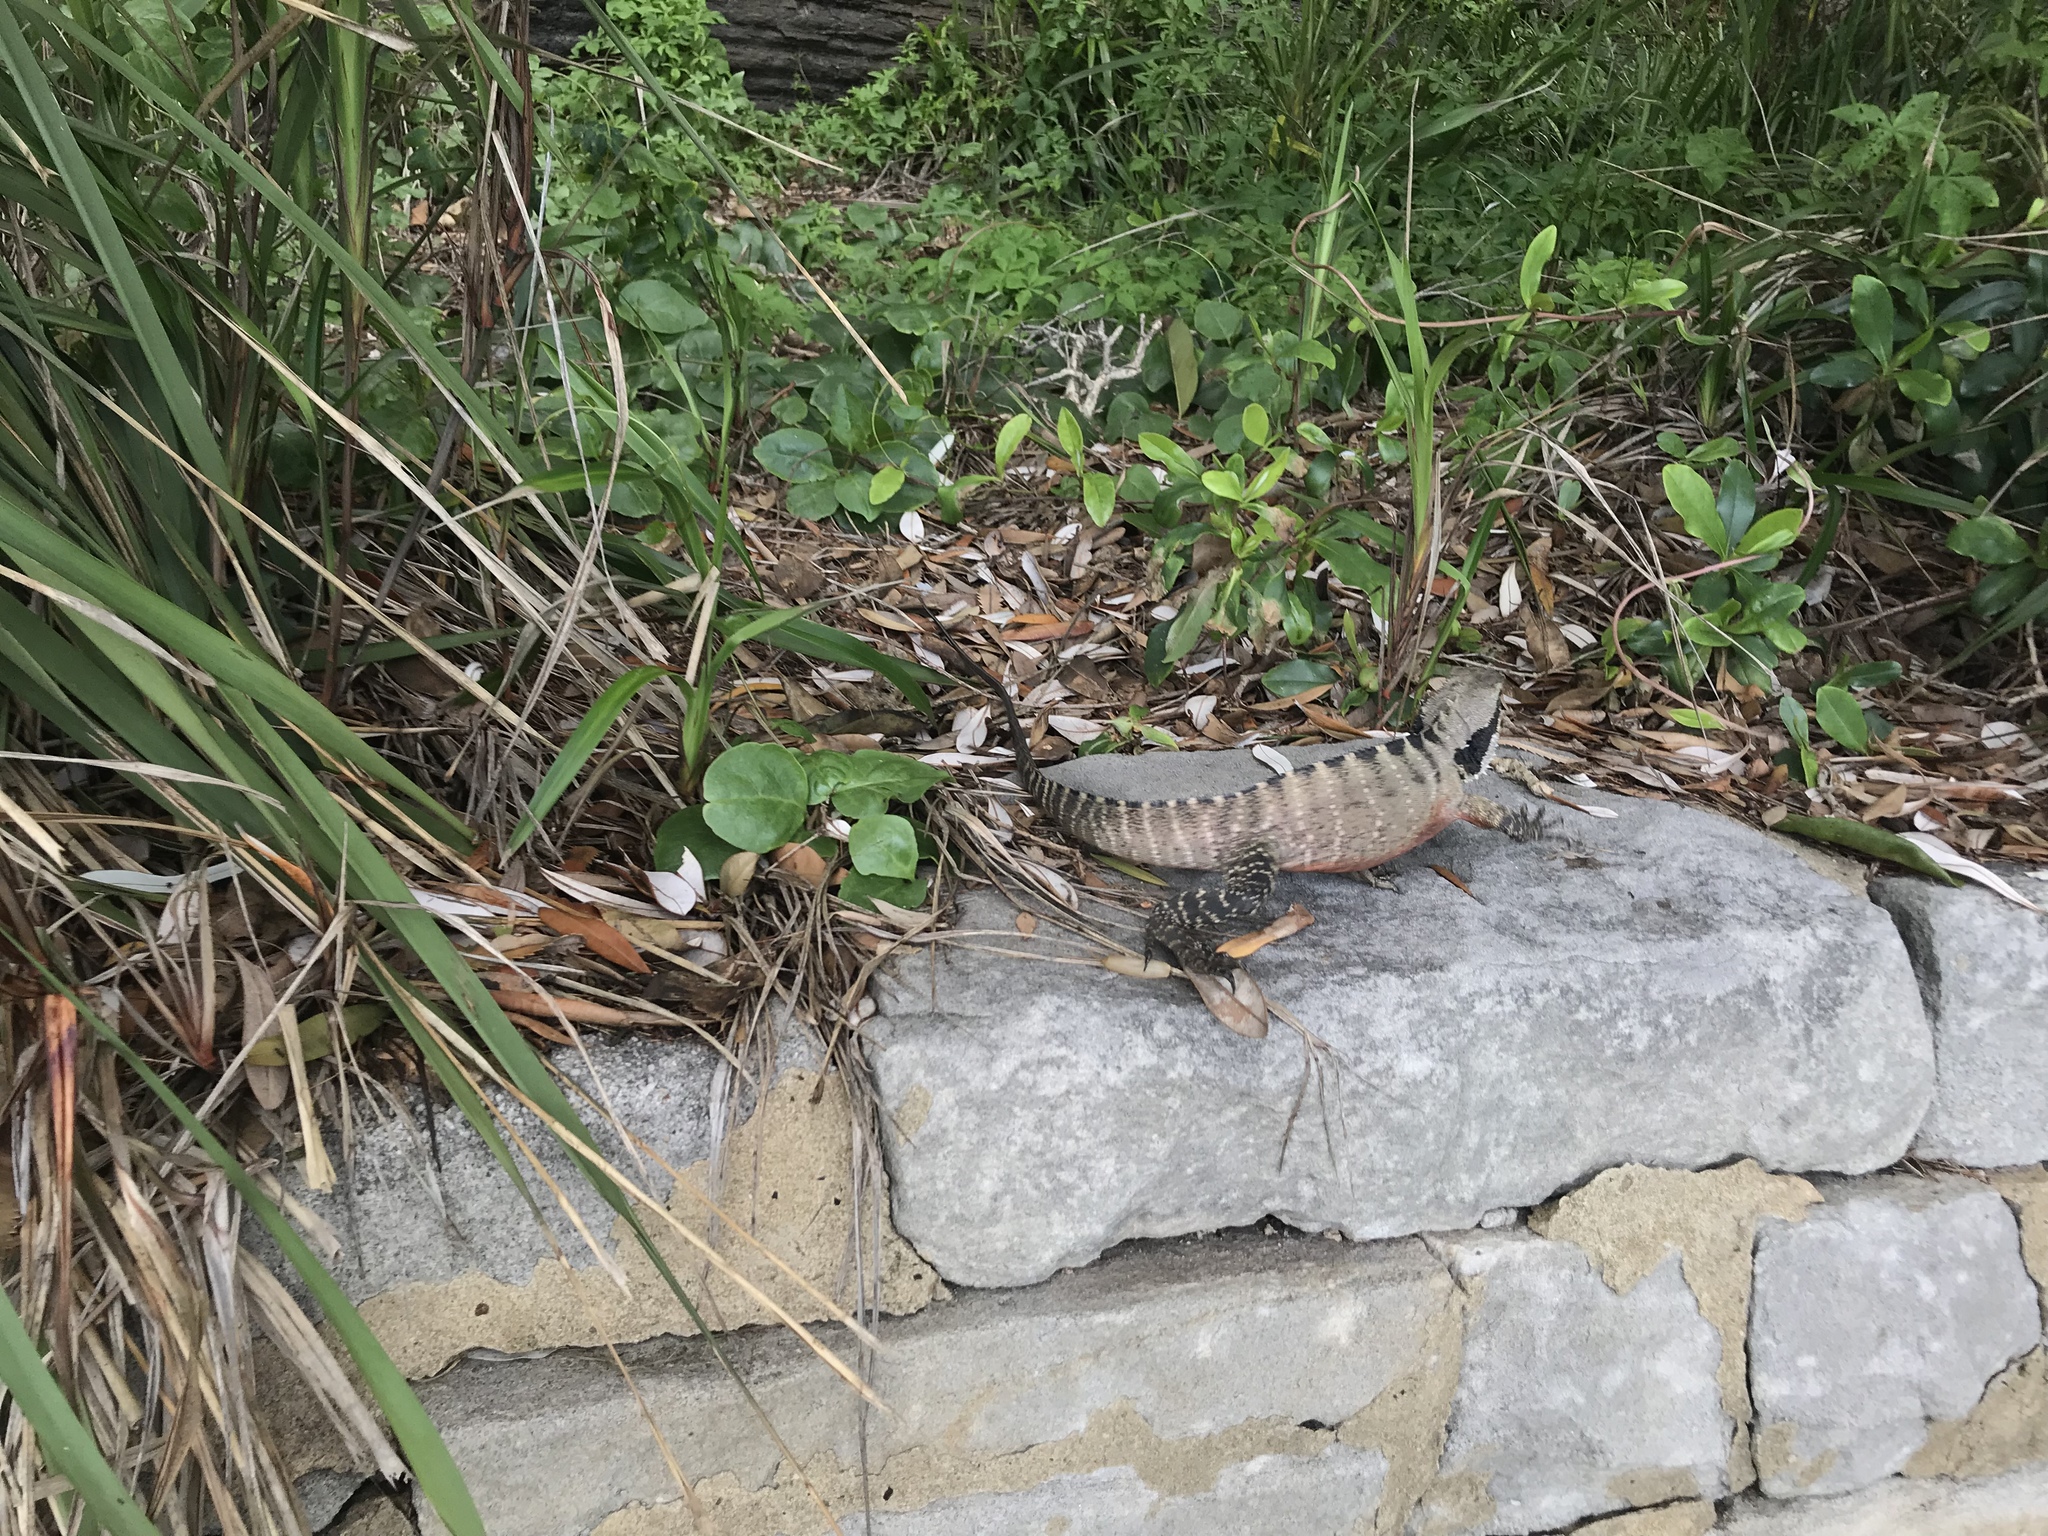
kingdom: Animalia
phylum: Chordata
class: Squamata
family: Agamidae
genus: Intellagama
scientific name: Intellagama lesueurii
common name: Eastern water dragon
